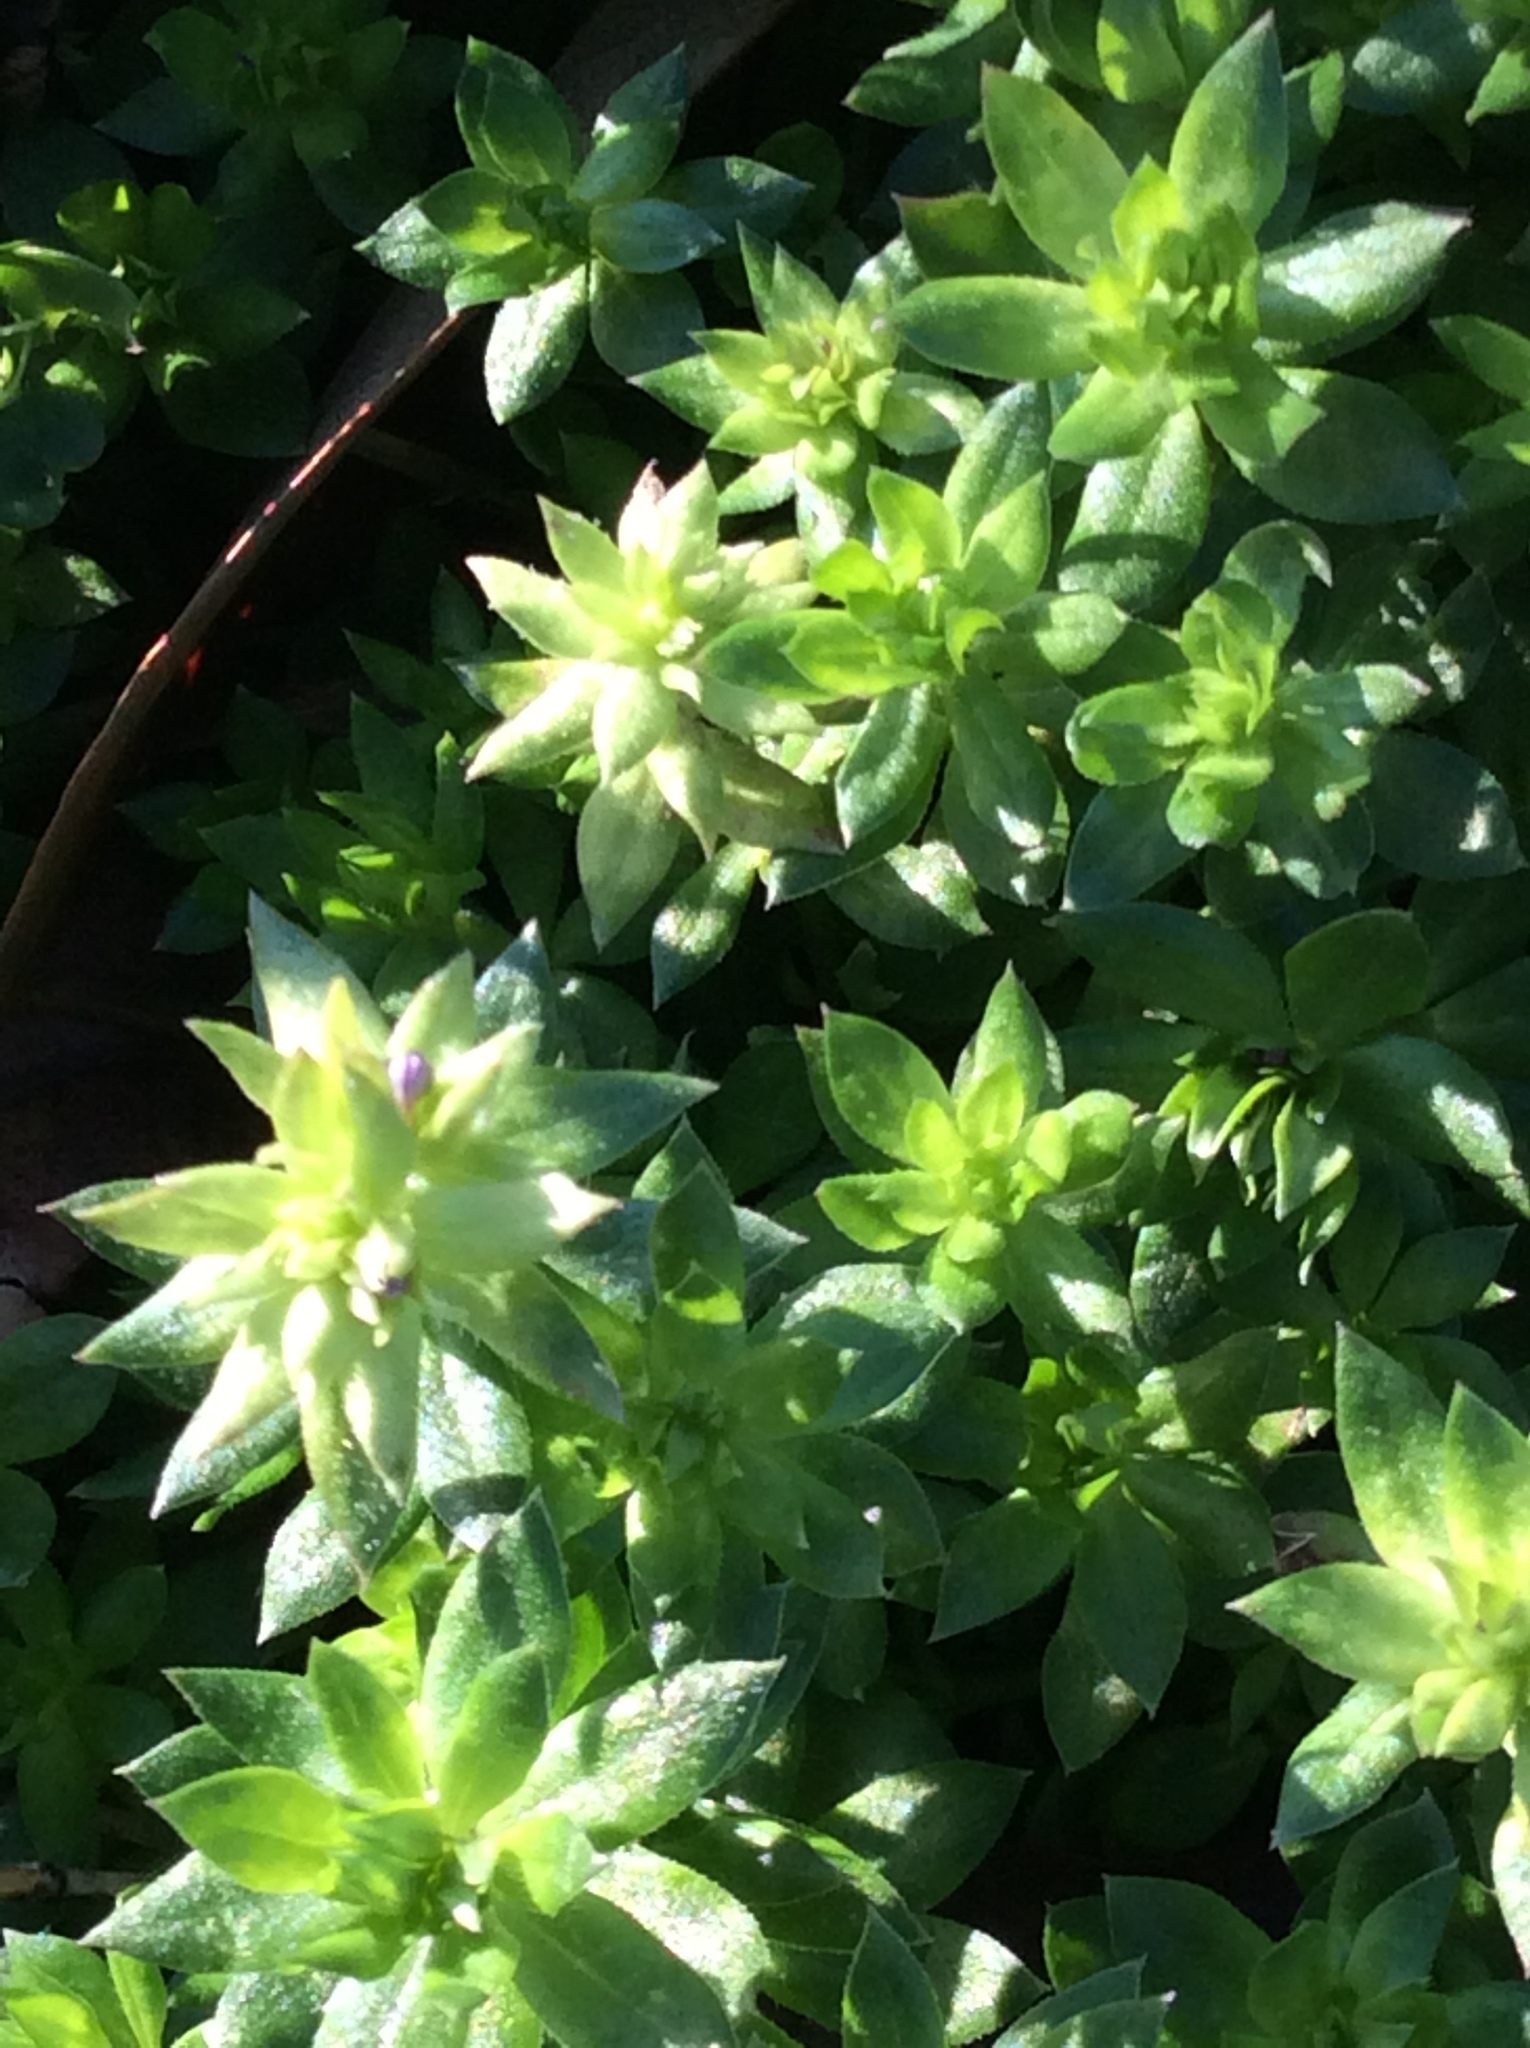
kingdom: Plantae
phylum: Tracheophyta
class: Magnoliopsida
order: Gentianales
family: Rubiaceae
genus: Sherardia
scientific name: Sherardia arvensis
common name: Field madder
